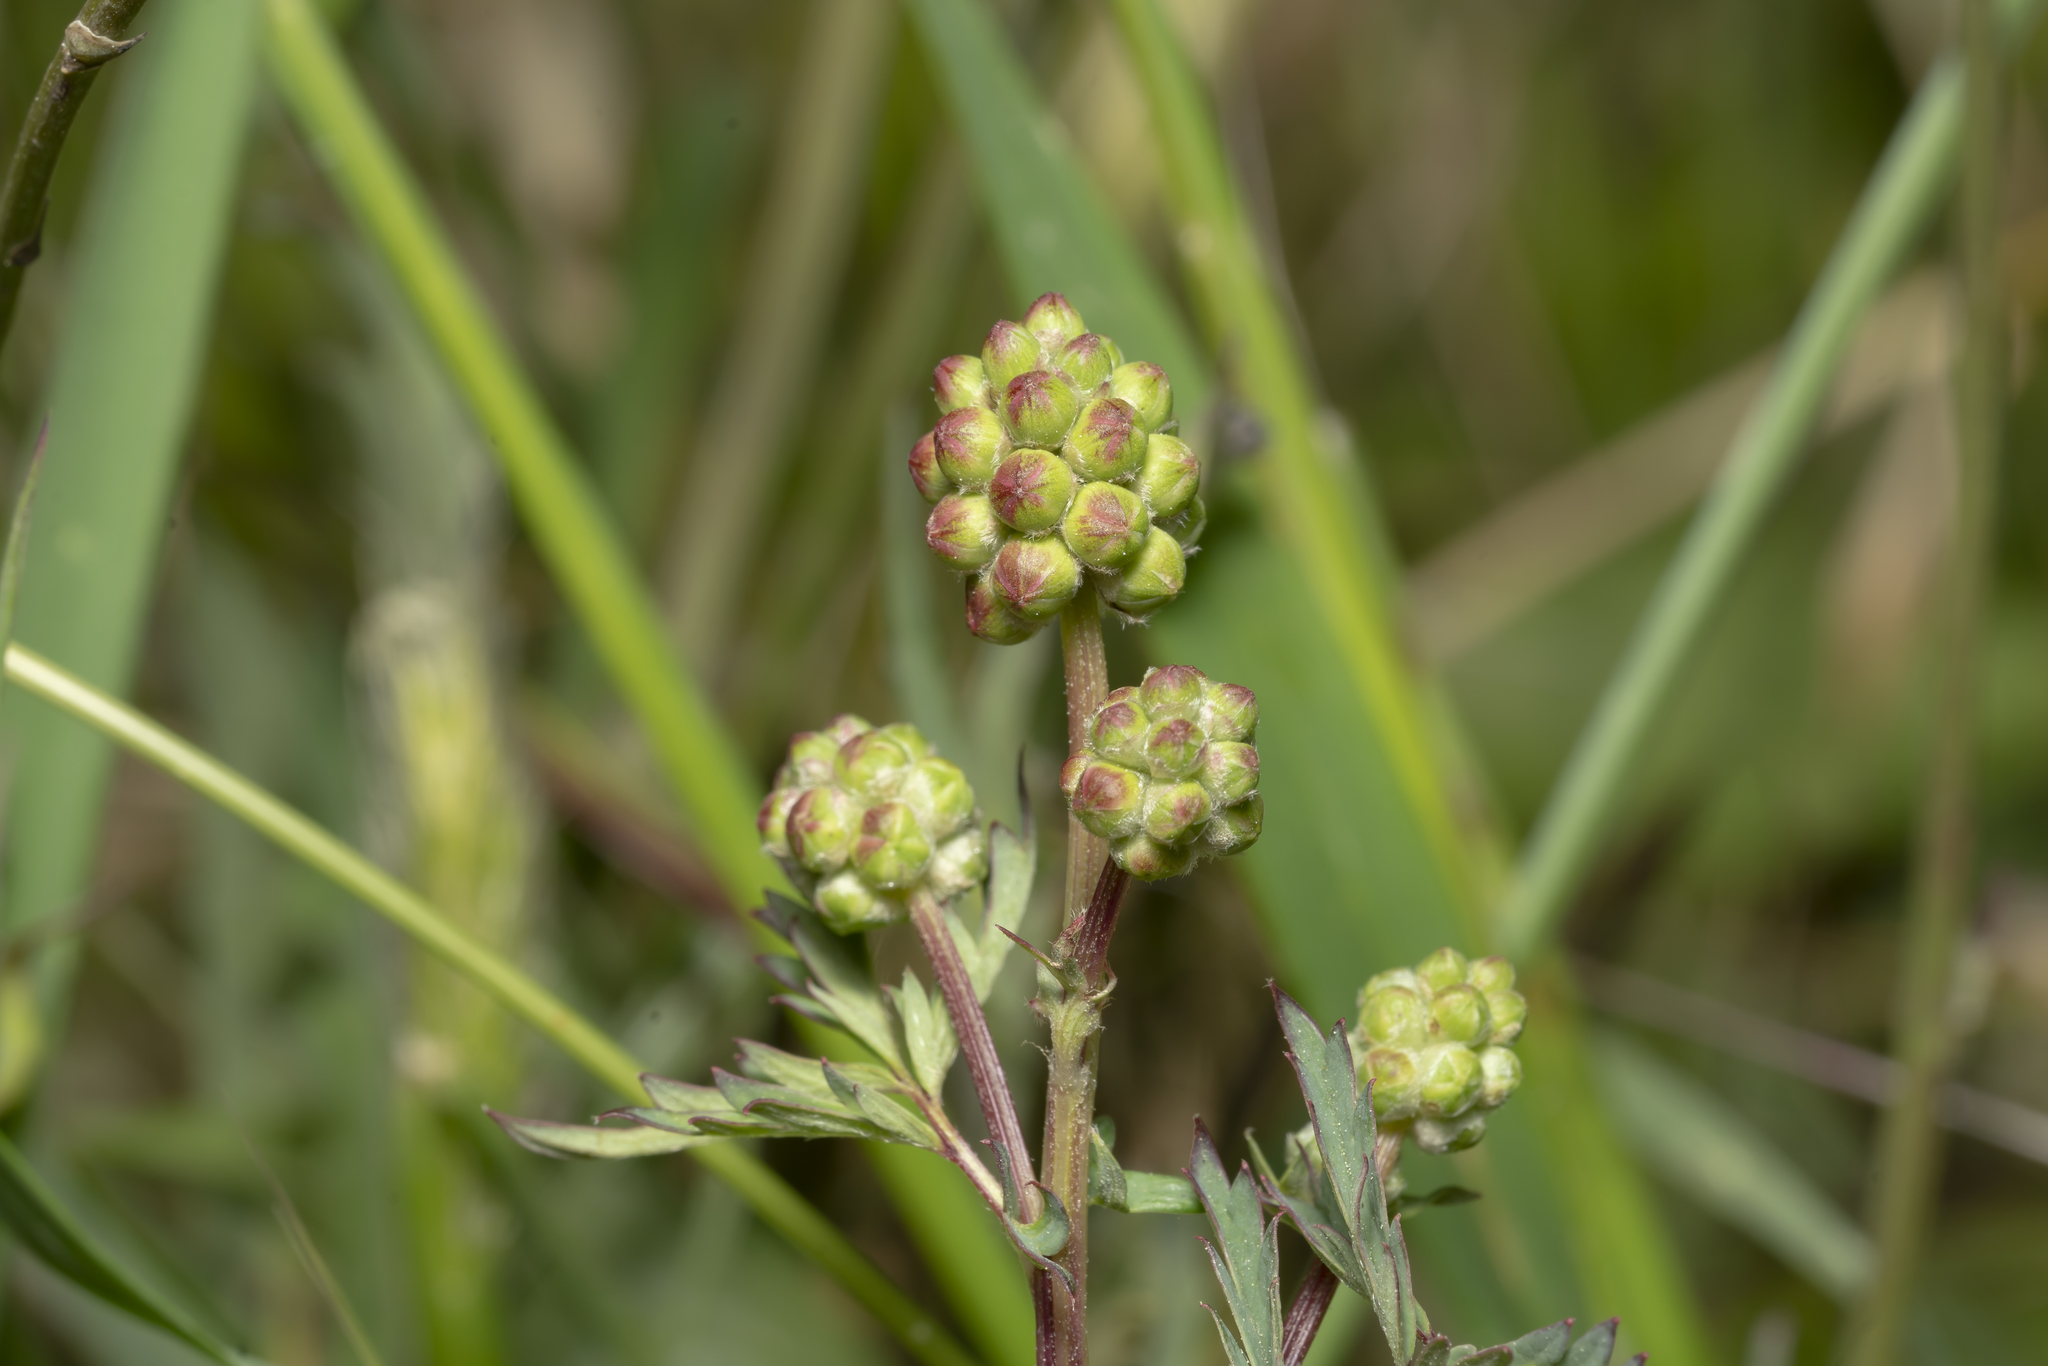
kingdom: Plantae
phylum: Tracheophyta
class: Magnoliopsida
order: Rosales
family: Rosaceae
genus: Poterium
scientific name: Poterium
